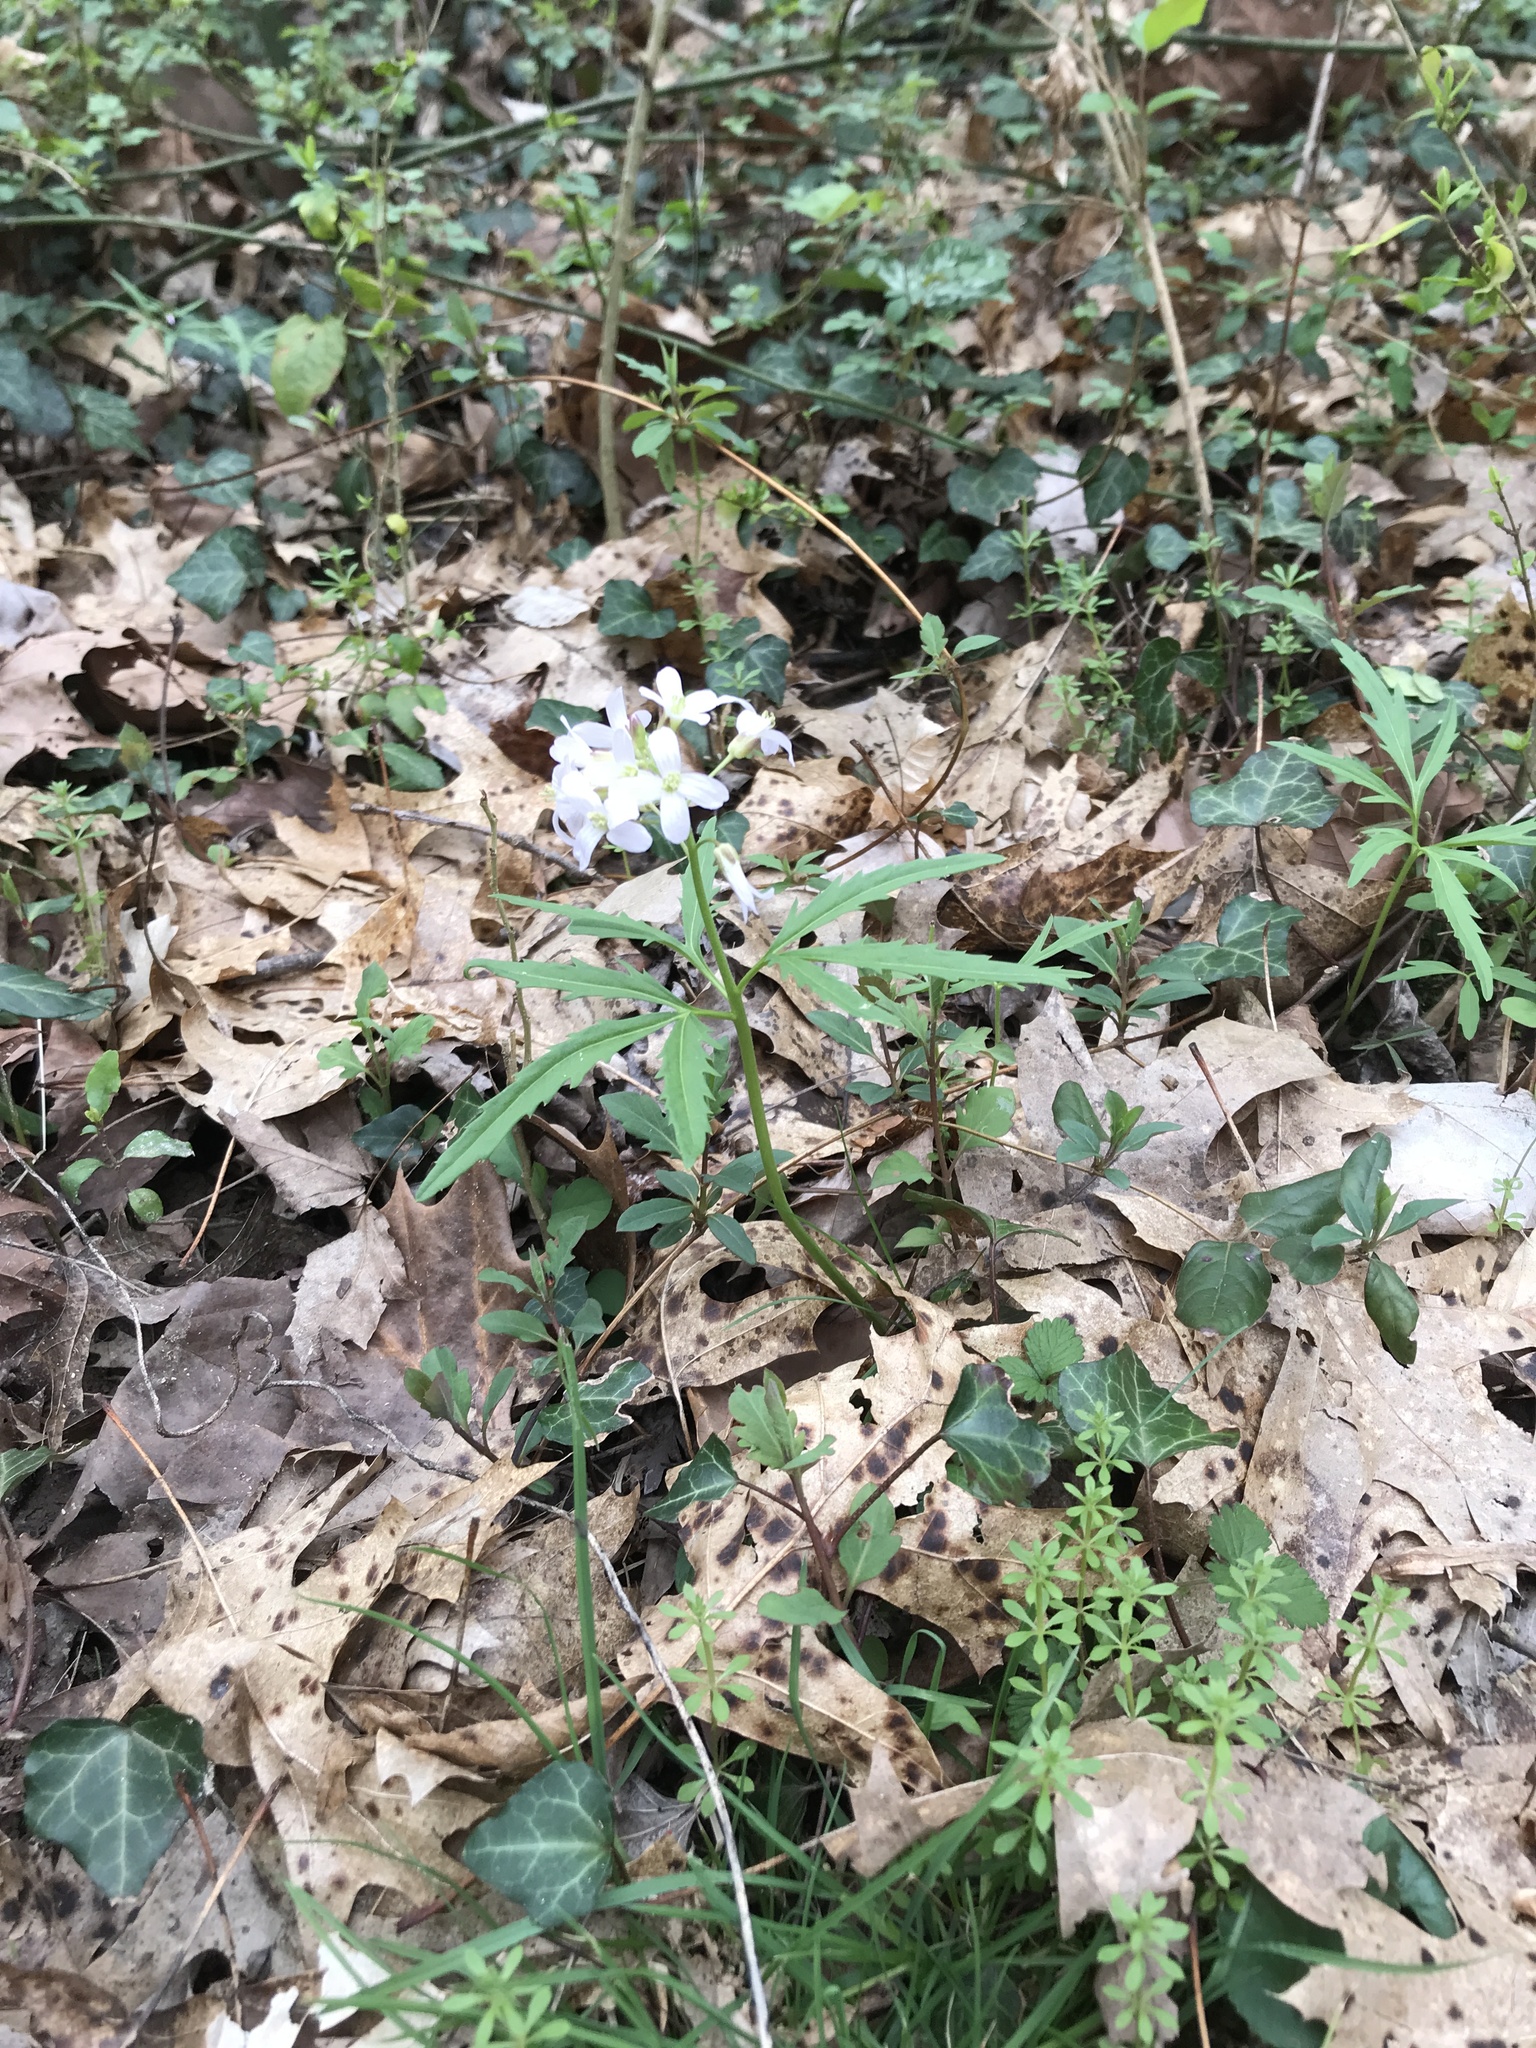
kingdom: Plantae
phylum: Tracheophyta
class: Magnoliopsida
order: Brassicales
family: Brassicaceae
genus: Cardamine
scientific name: Cardamine concatenata
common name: Cut-leaf toothcup
